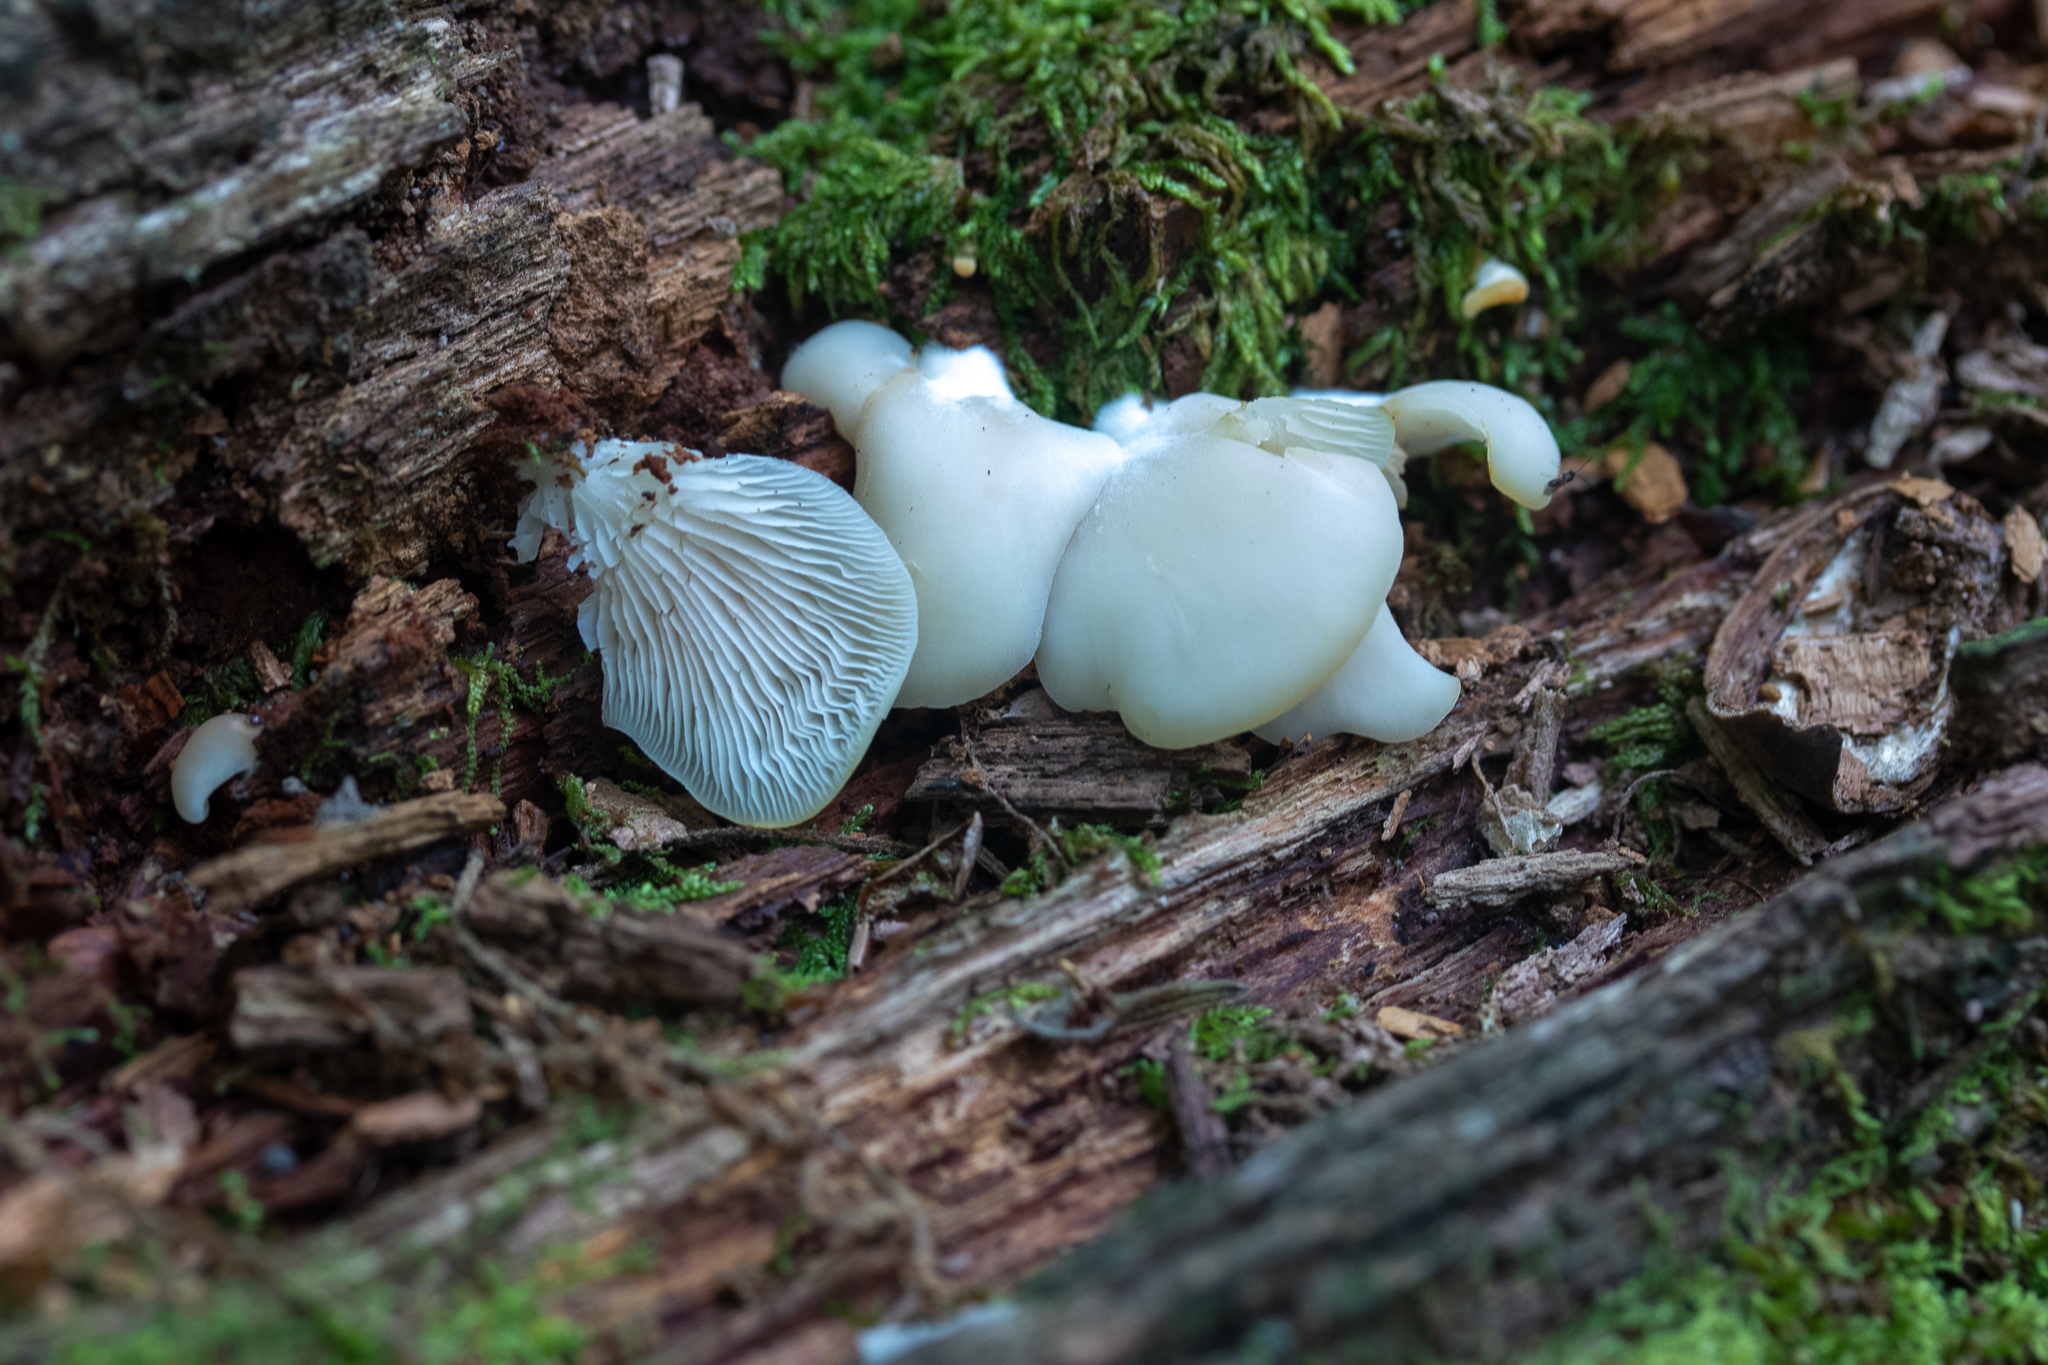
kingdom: Fungi
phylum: Basidiomycota
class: Agaricomycetes
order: Agaricales
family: Crepidotaceae
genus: Crepidotus
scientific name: Crepidotus mollis
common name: Peeling oysterling
